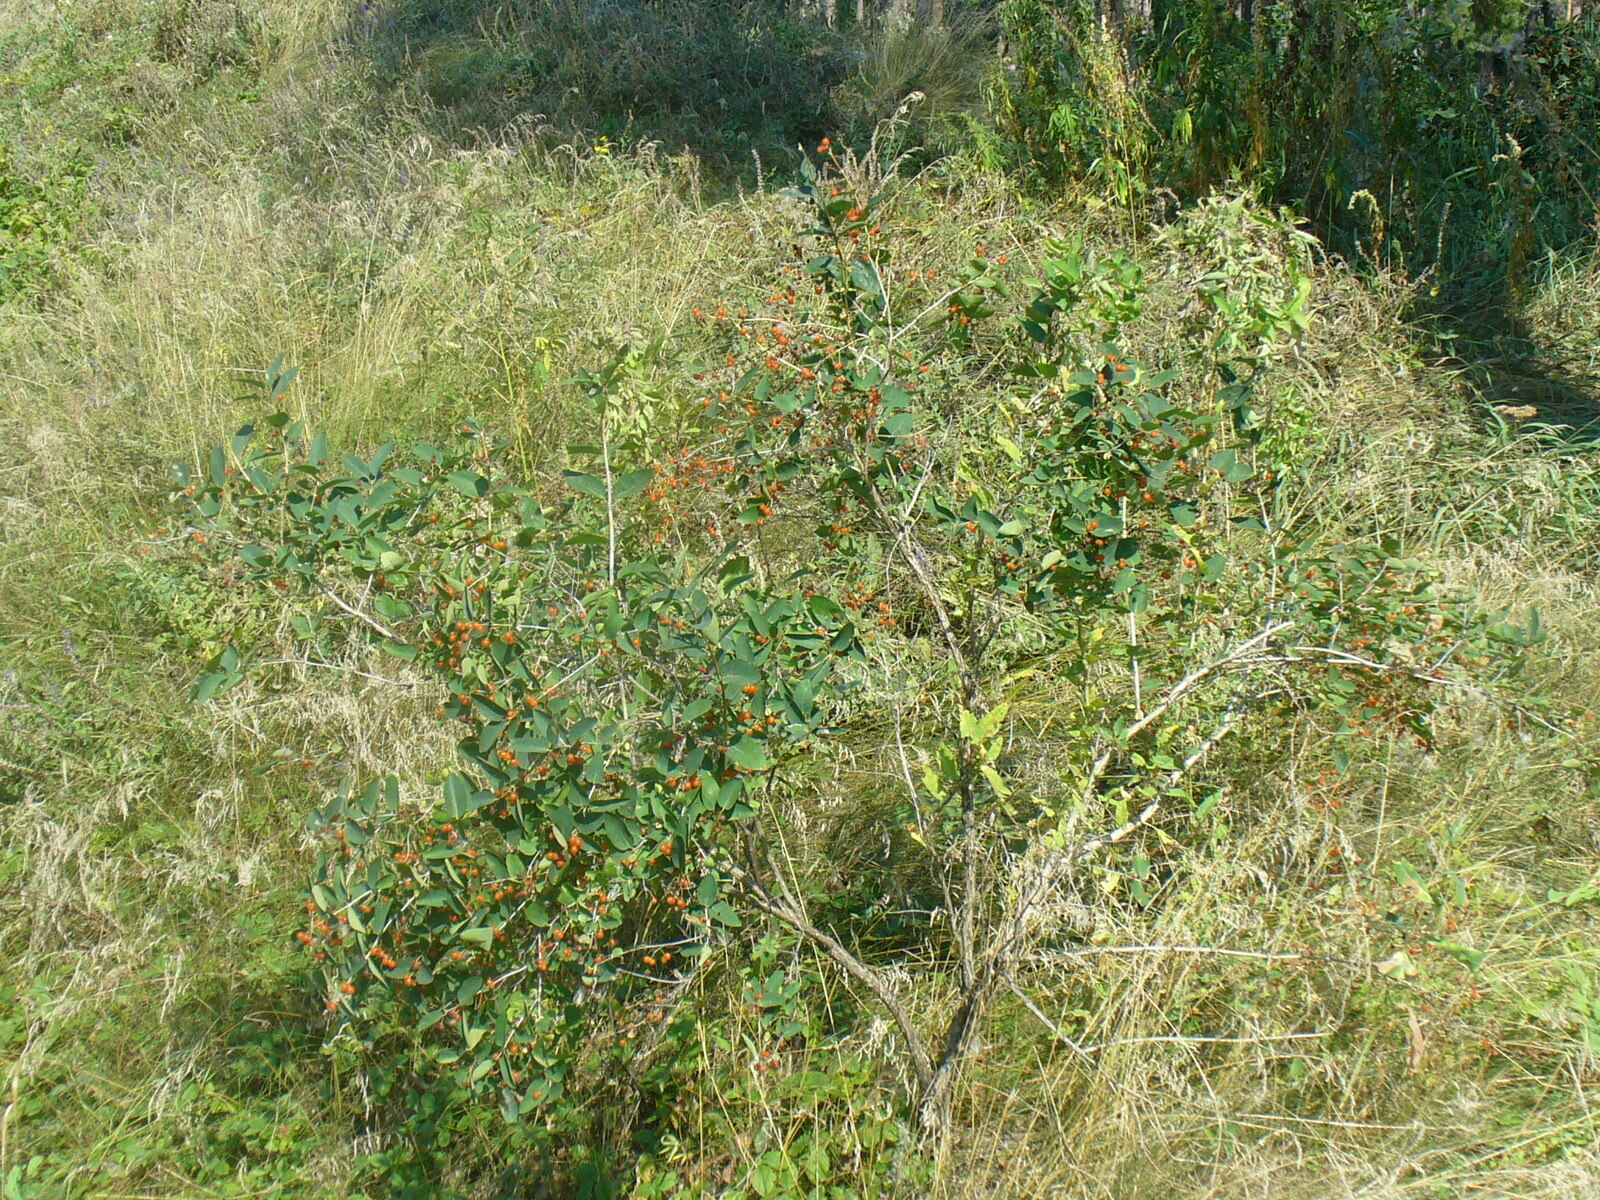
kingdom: Plantae
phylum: Tracheophyta
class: Magnoliopsida
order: Dipsacales
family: Caprifoliaceae
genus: Lonicera
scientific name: Lonicera tatarica
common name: Tatarian honeysuckle
